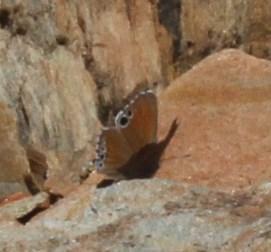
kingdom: Animalia
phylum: Arthropoda
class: Insecta
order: Lepidoptera
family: Lycaenidae
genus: Leptomyrina
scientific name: Leptomyrina lara
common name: Cape black-eye
